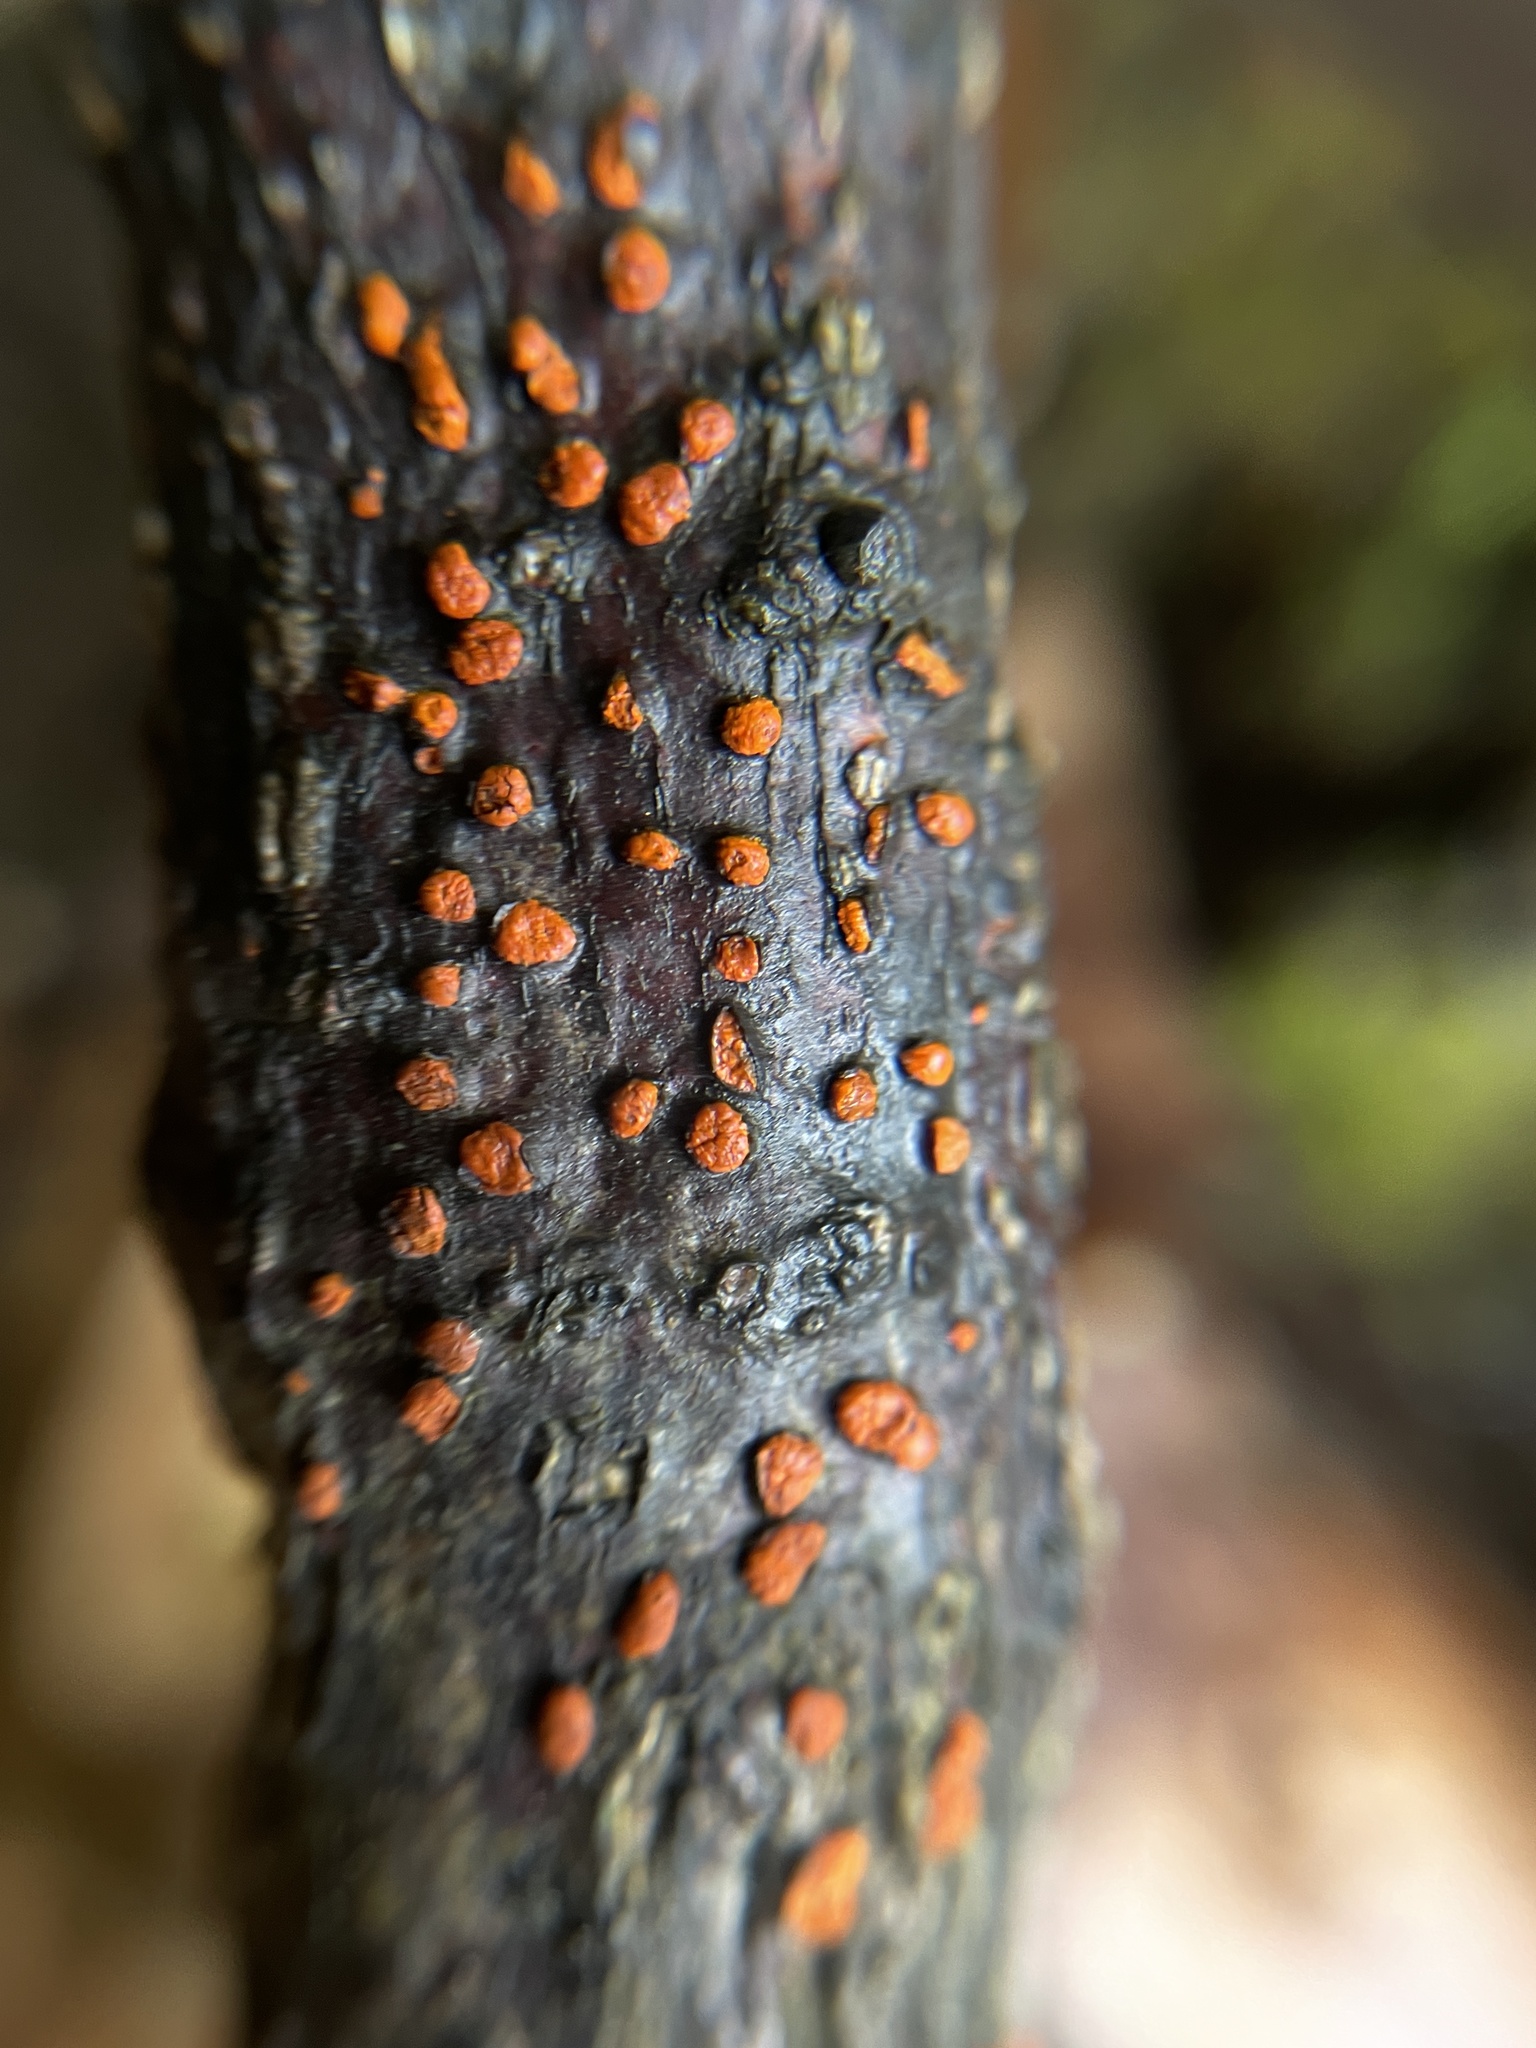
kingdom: Fungi
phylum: Ascomycota
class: Sordariomycetes
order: Diaporthales
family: Cryphonectriaceae
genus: Amphilogia
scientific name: Amphilogia gyrosa
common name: Orange hobnail canker
